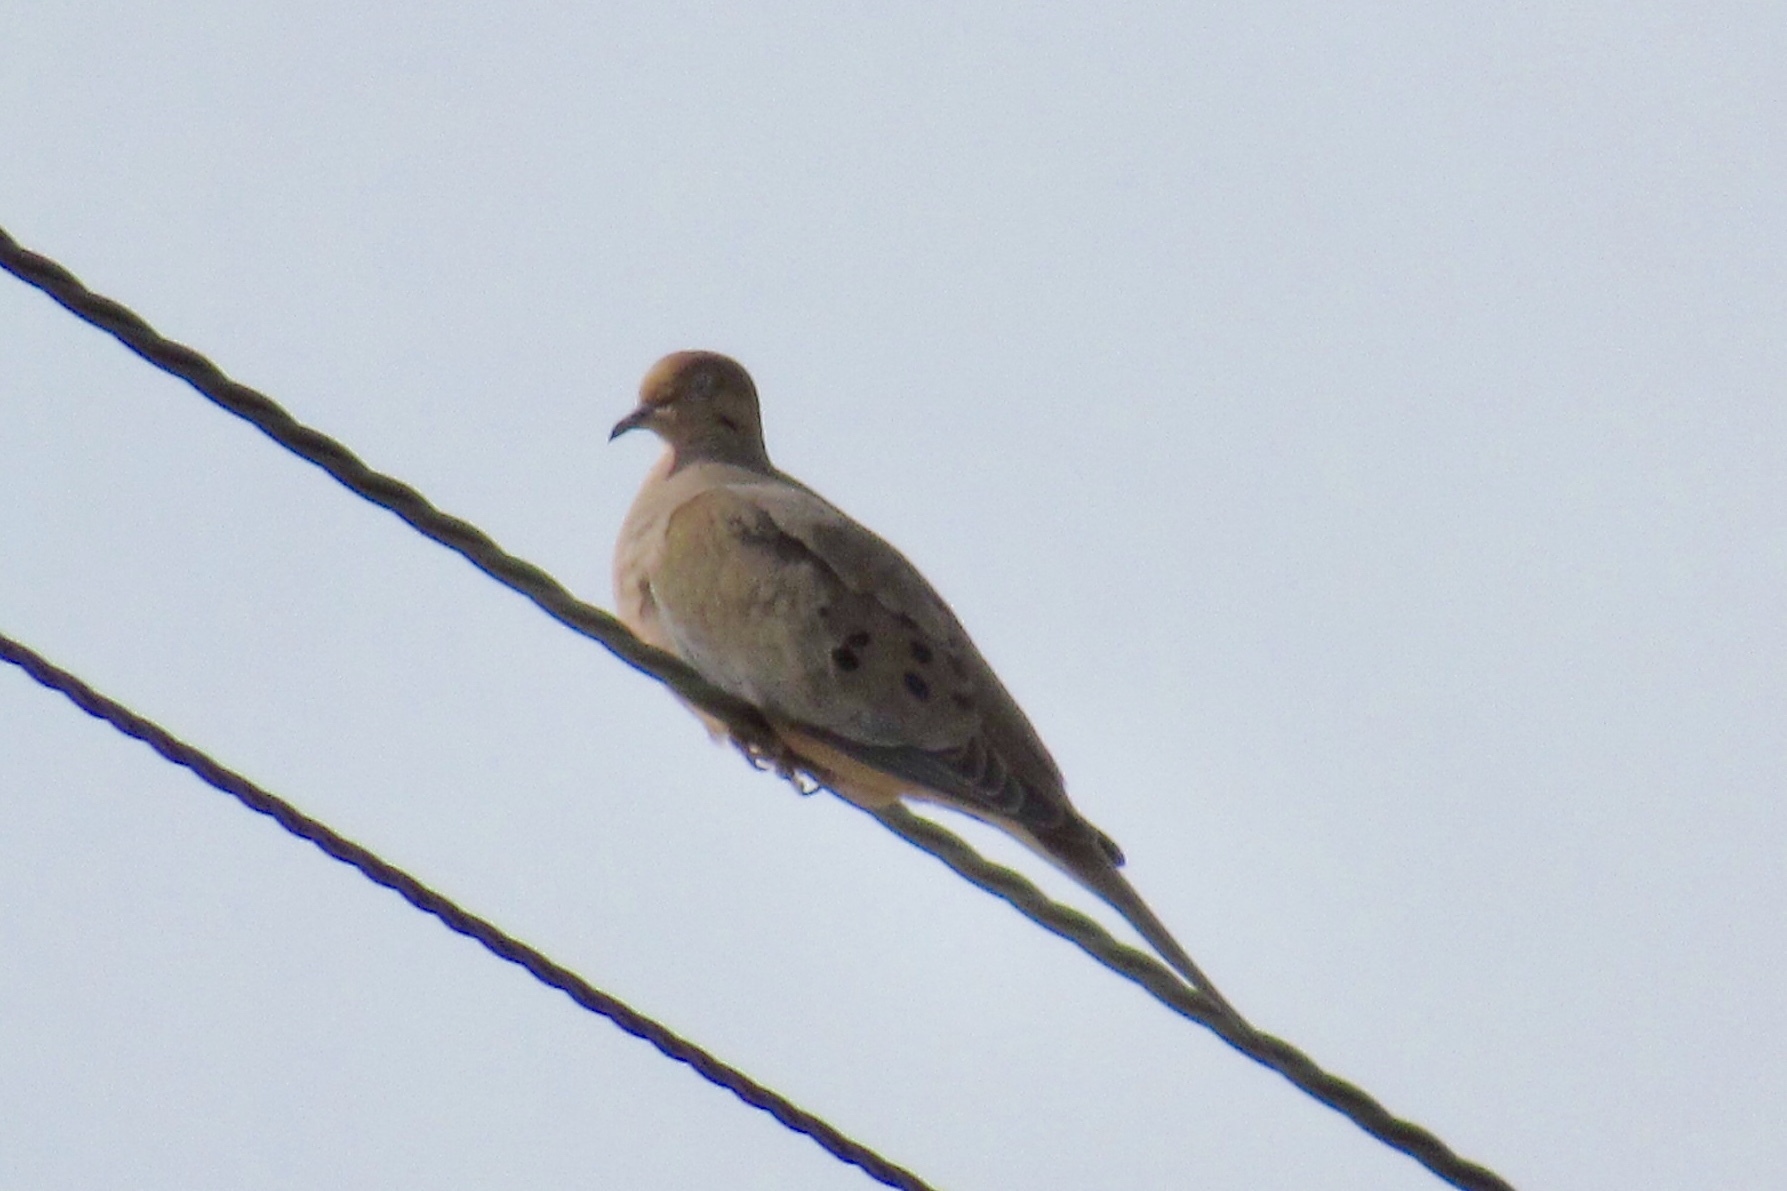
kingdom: Animalia
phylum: Chordata
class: Aves
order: Columbiformes
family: Columbidae
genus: Zenaida
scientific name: Zenaida macroura
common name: Mourning dove
